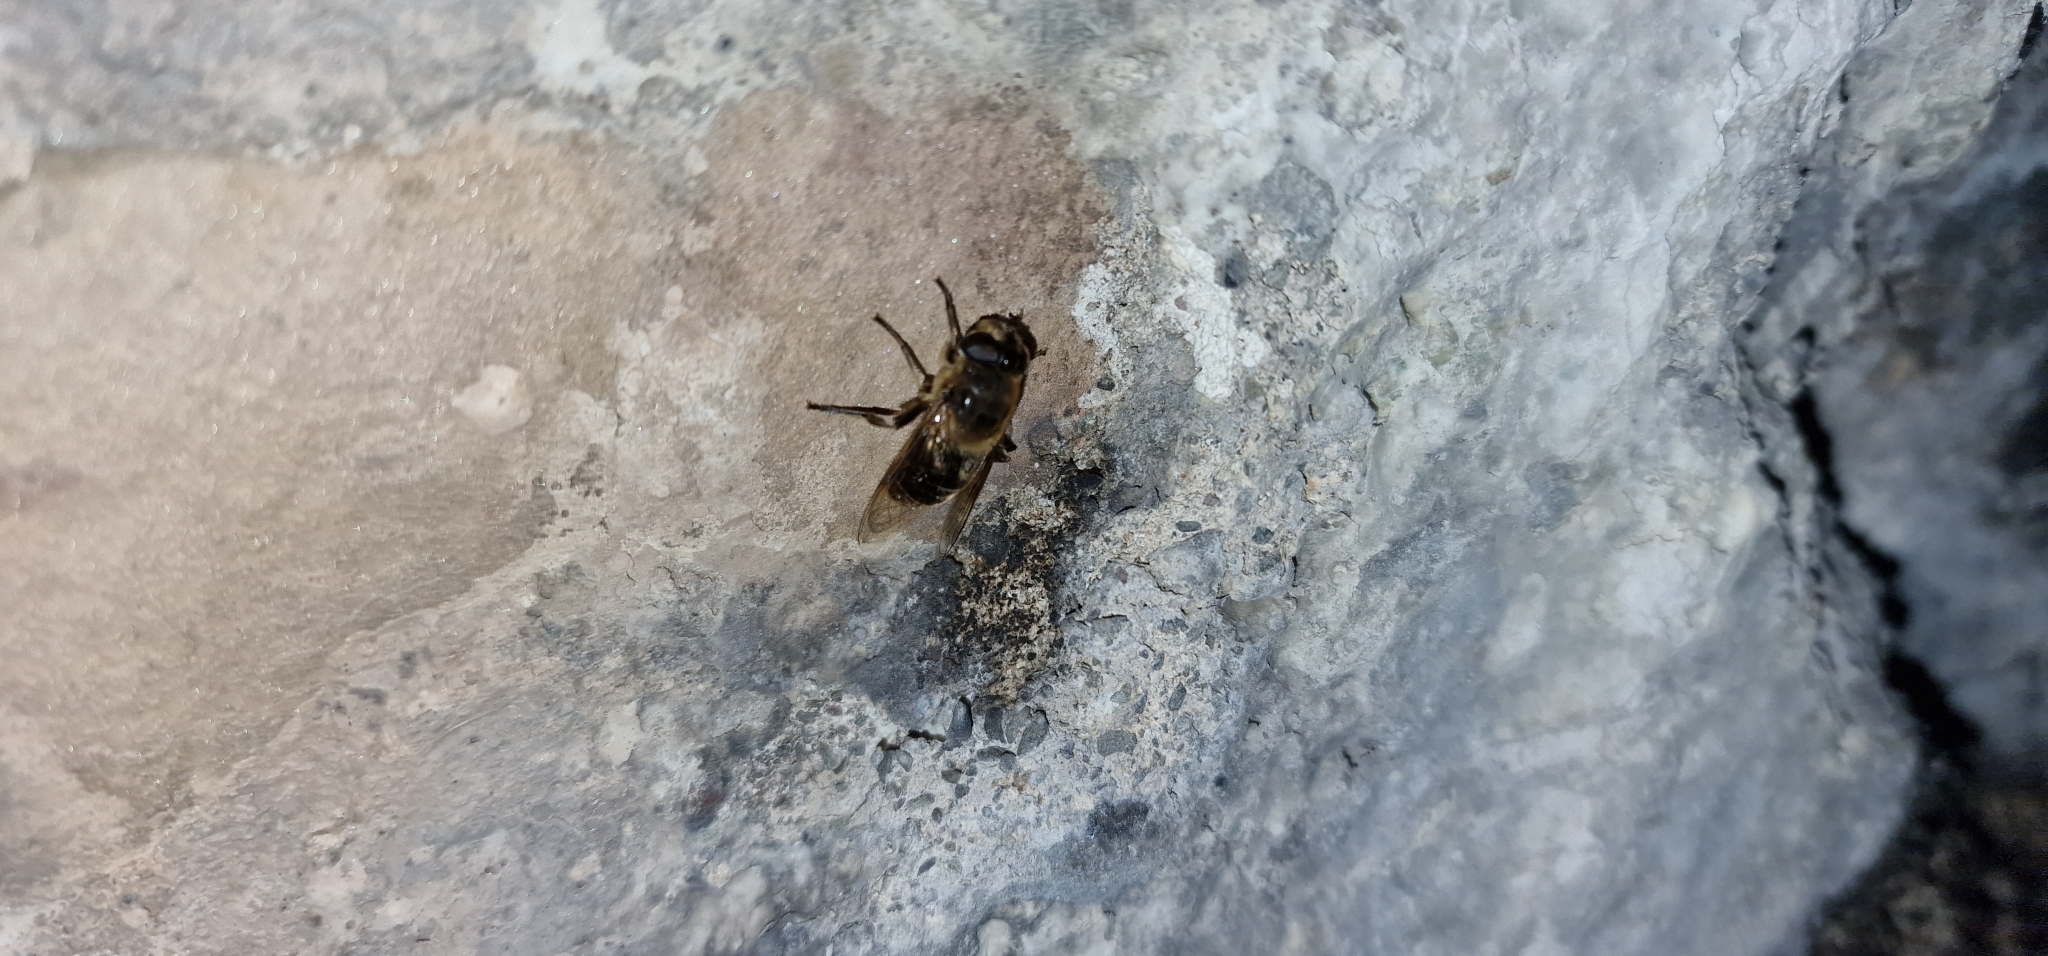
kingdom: Animalia
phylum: Arthropoda
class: Insecta
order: Diptera
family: Syrphidae
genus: Eristalis
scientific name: Eristalis tenax
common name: Drone fly
